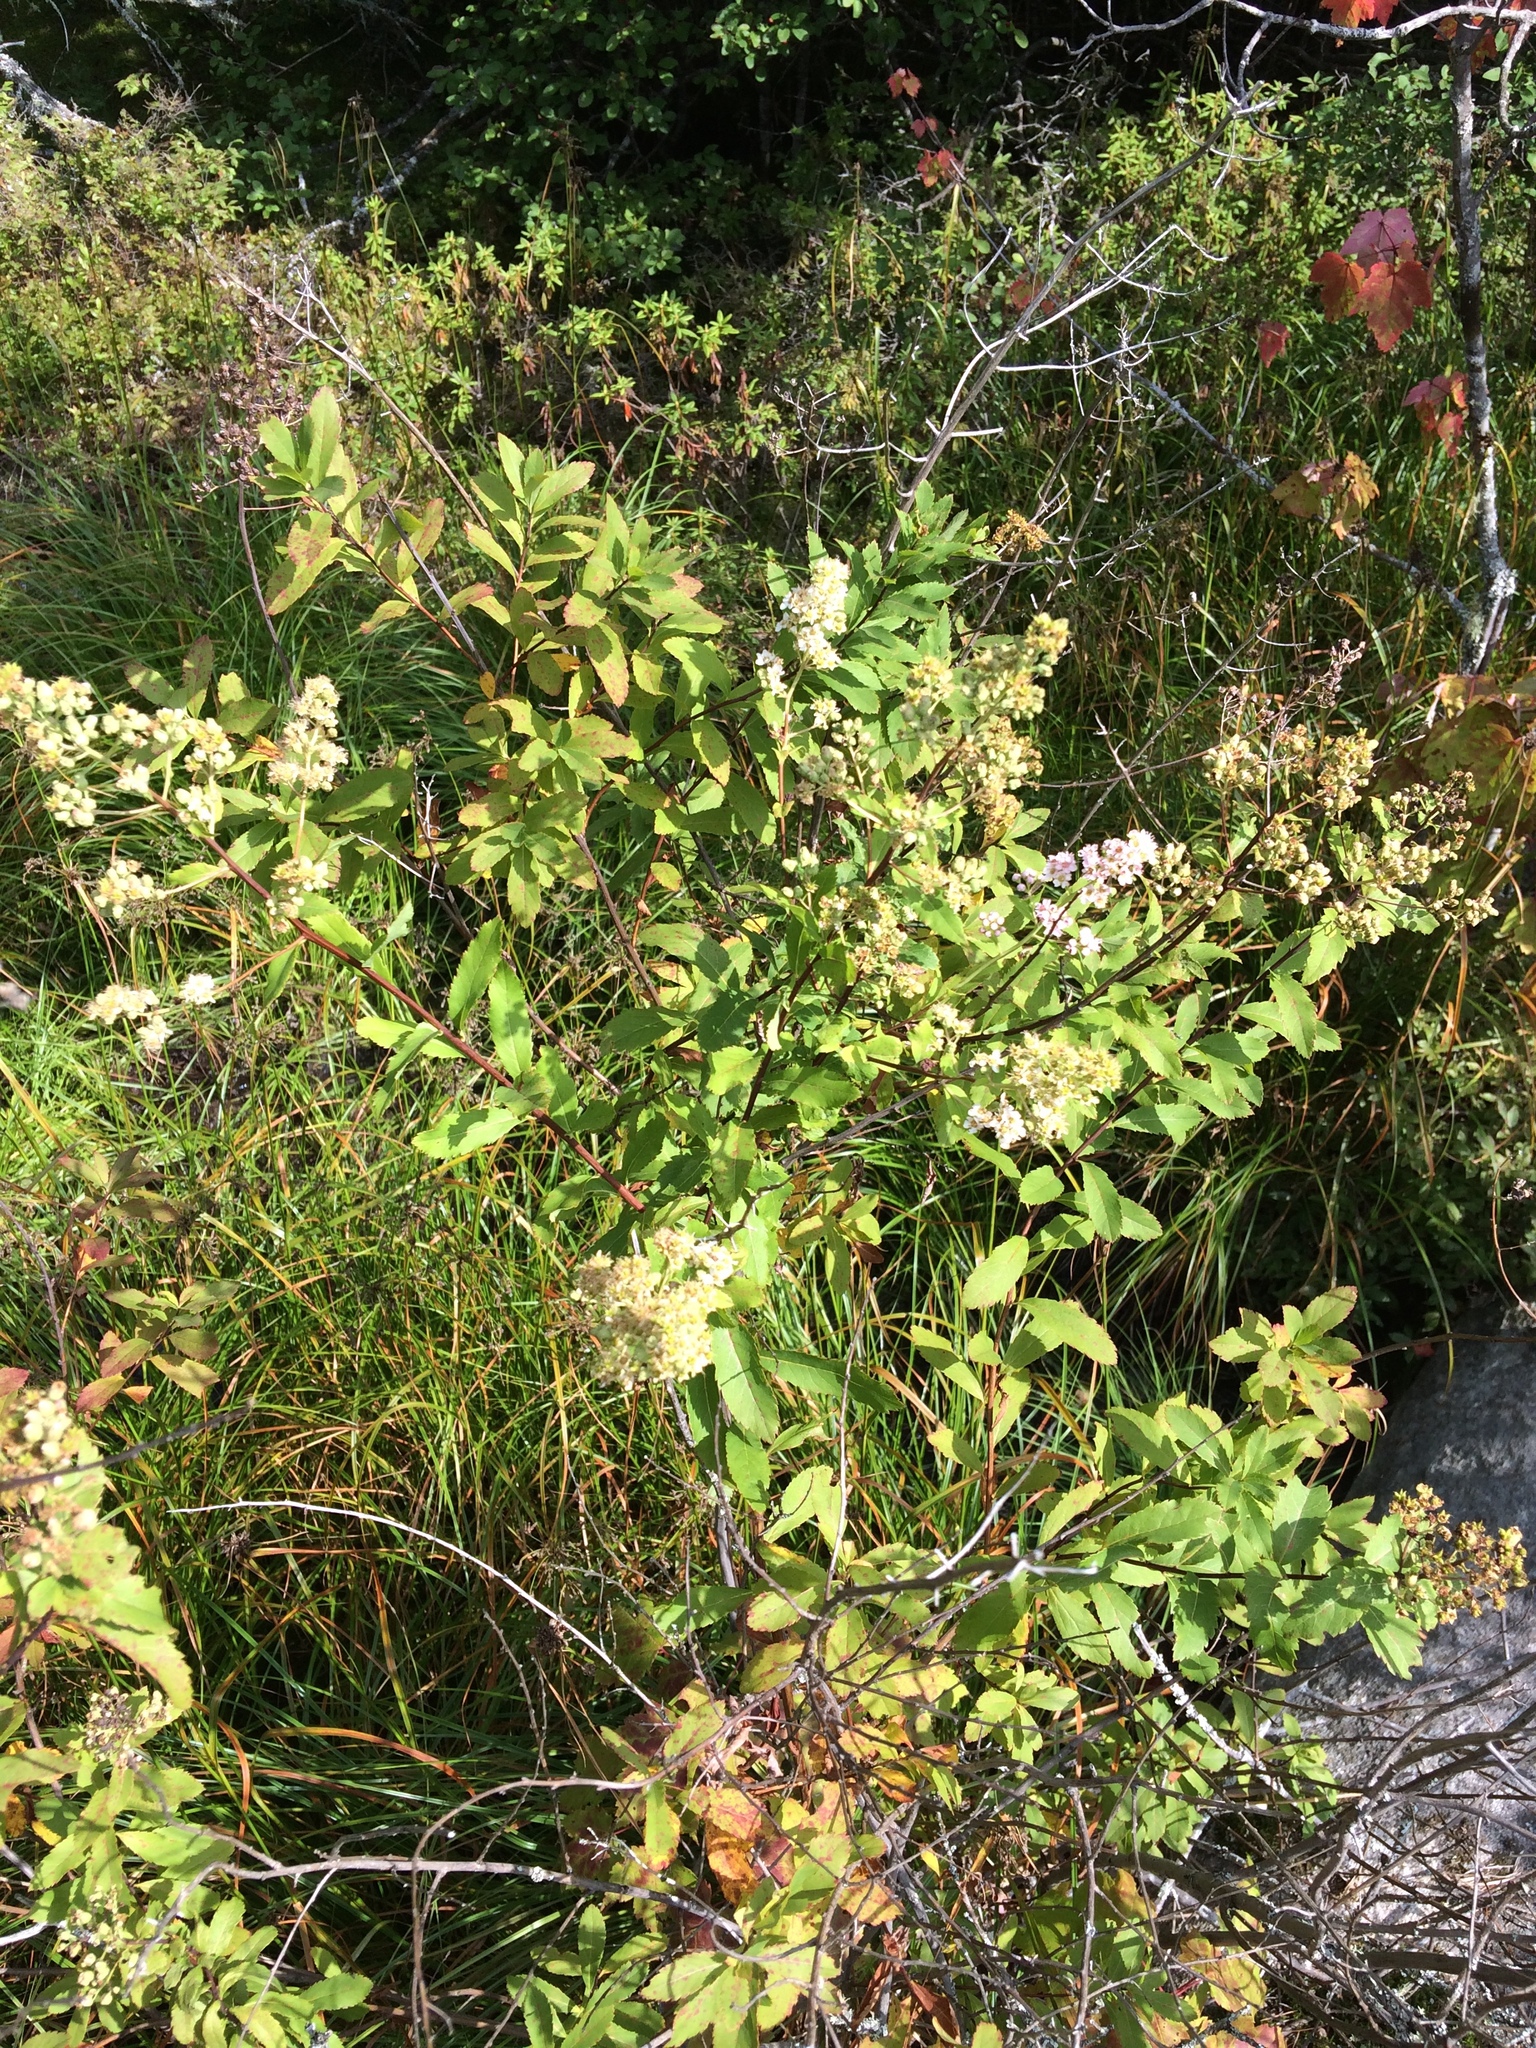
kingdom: Plantae
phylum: Tracheophyta
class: Magnoliopsida
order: Rosales
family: Rosaceae
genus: Spiraea
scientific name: Spiraea alba
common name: Pale bridewort
